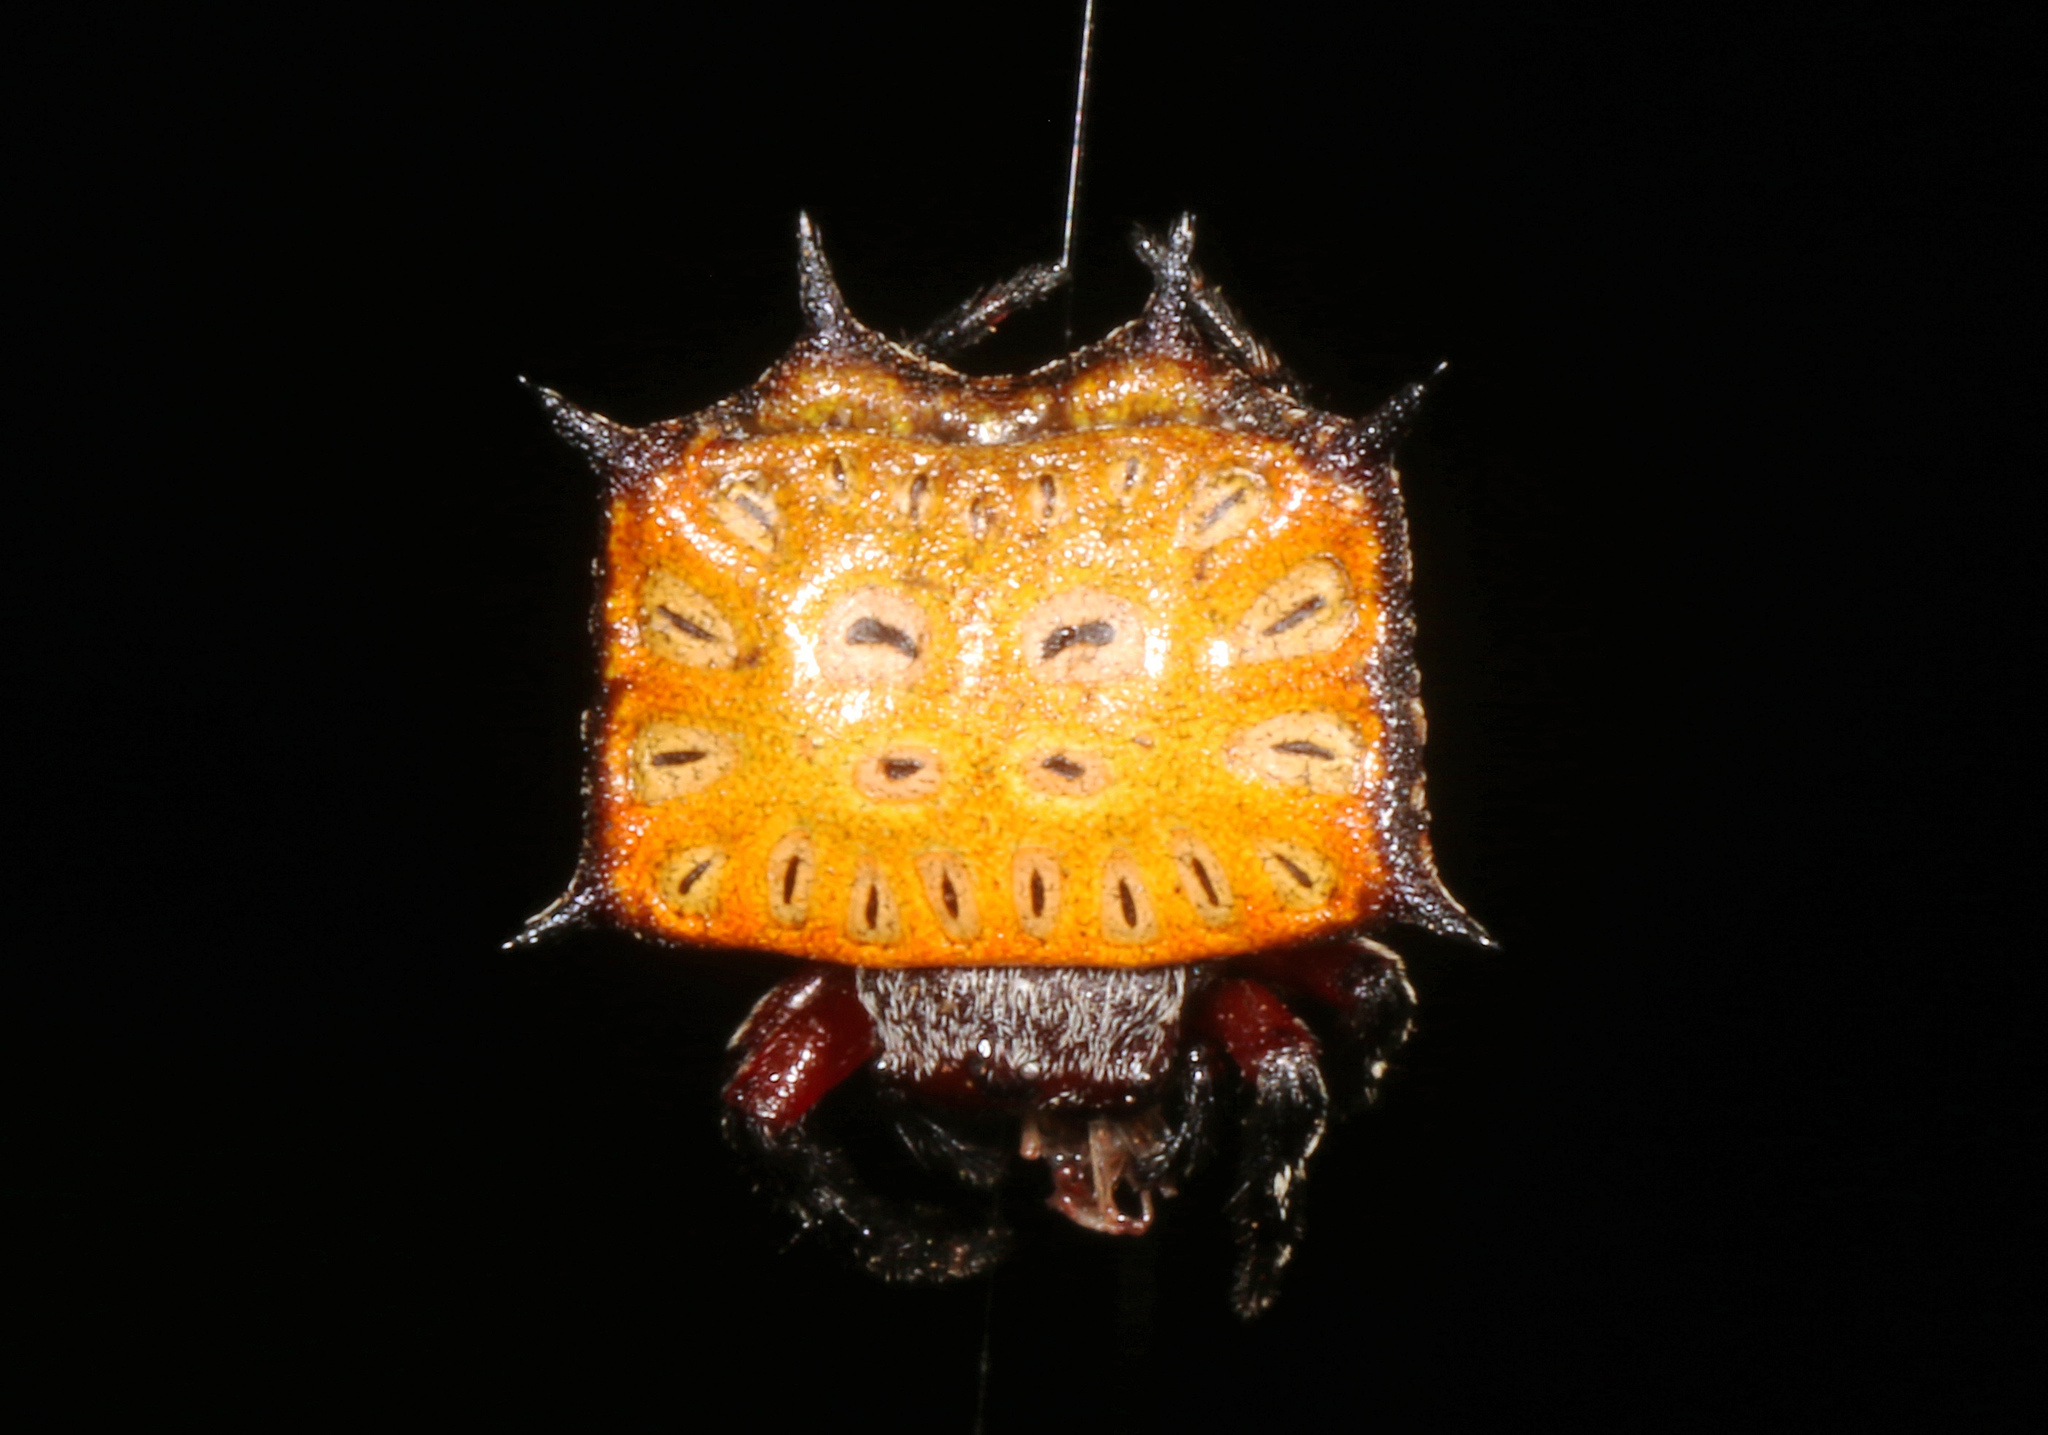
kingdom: Animalia
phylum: Arthropoda
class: Arachnida
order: Araneae
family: Araneidae
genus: Isoxya
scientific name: Isoxya tabulata
